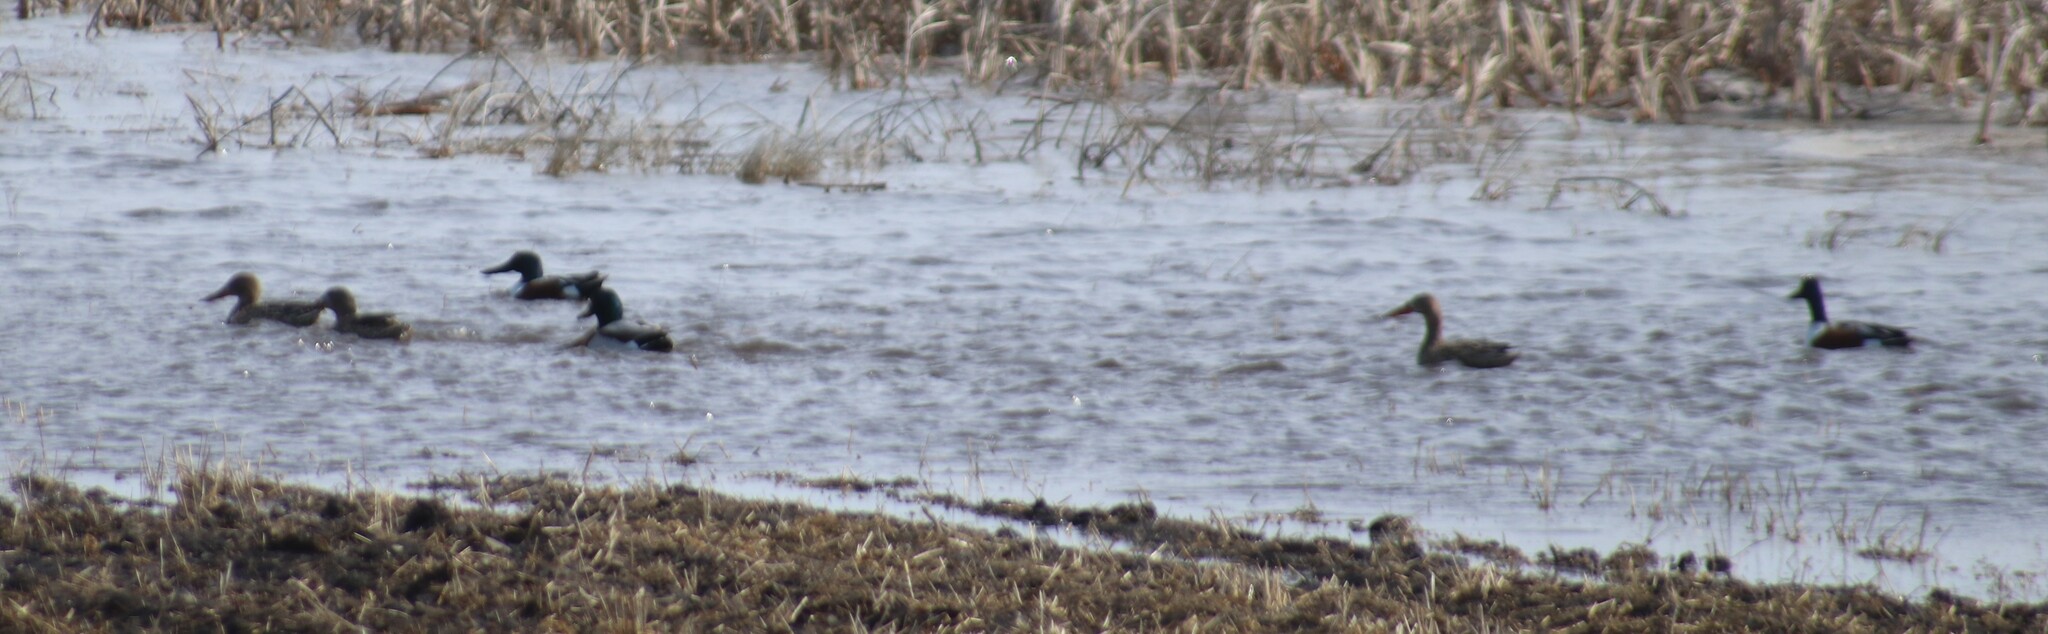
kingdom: Animalia
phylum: Chordata
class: Aves
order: Anseriformes
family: Anatidae
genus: Spatula
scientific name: Spatula clypeata
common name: Northern shoveler
